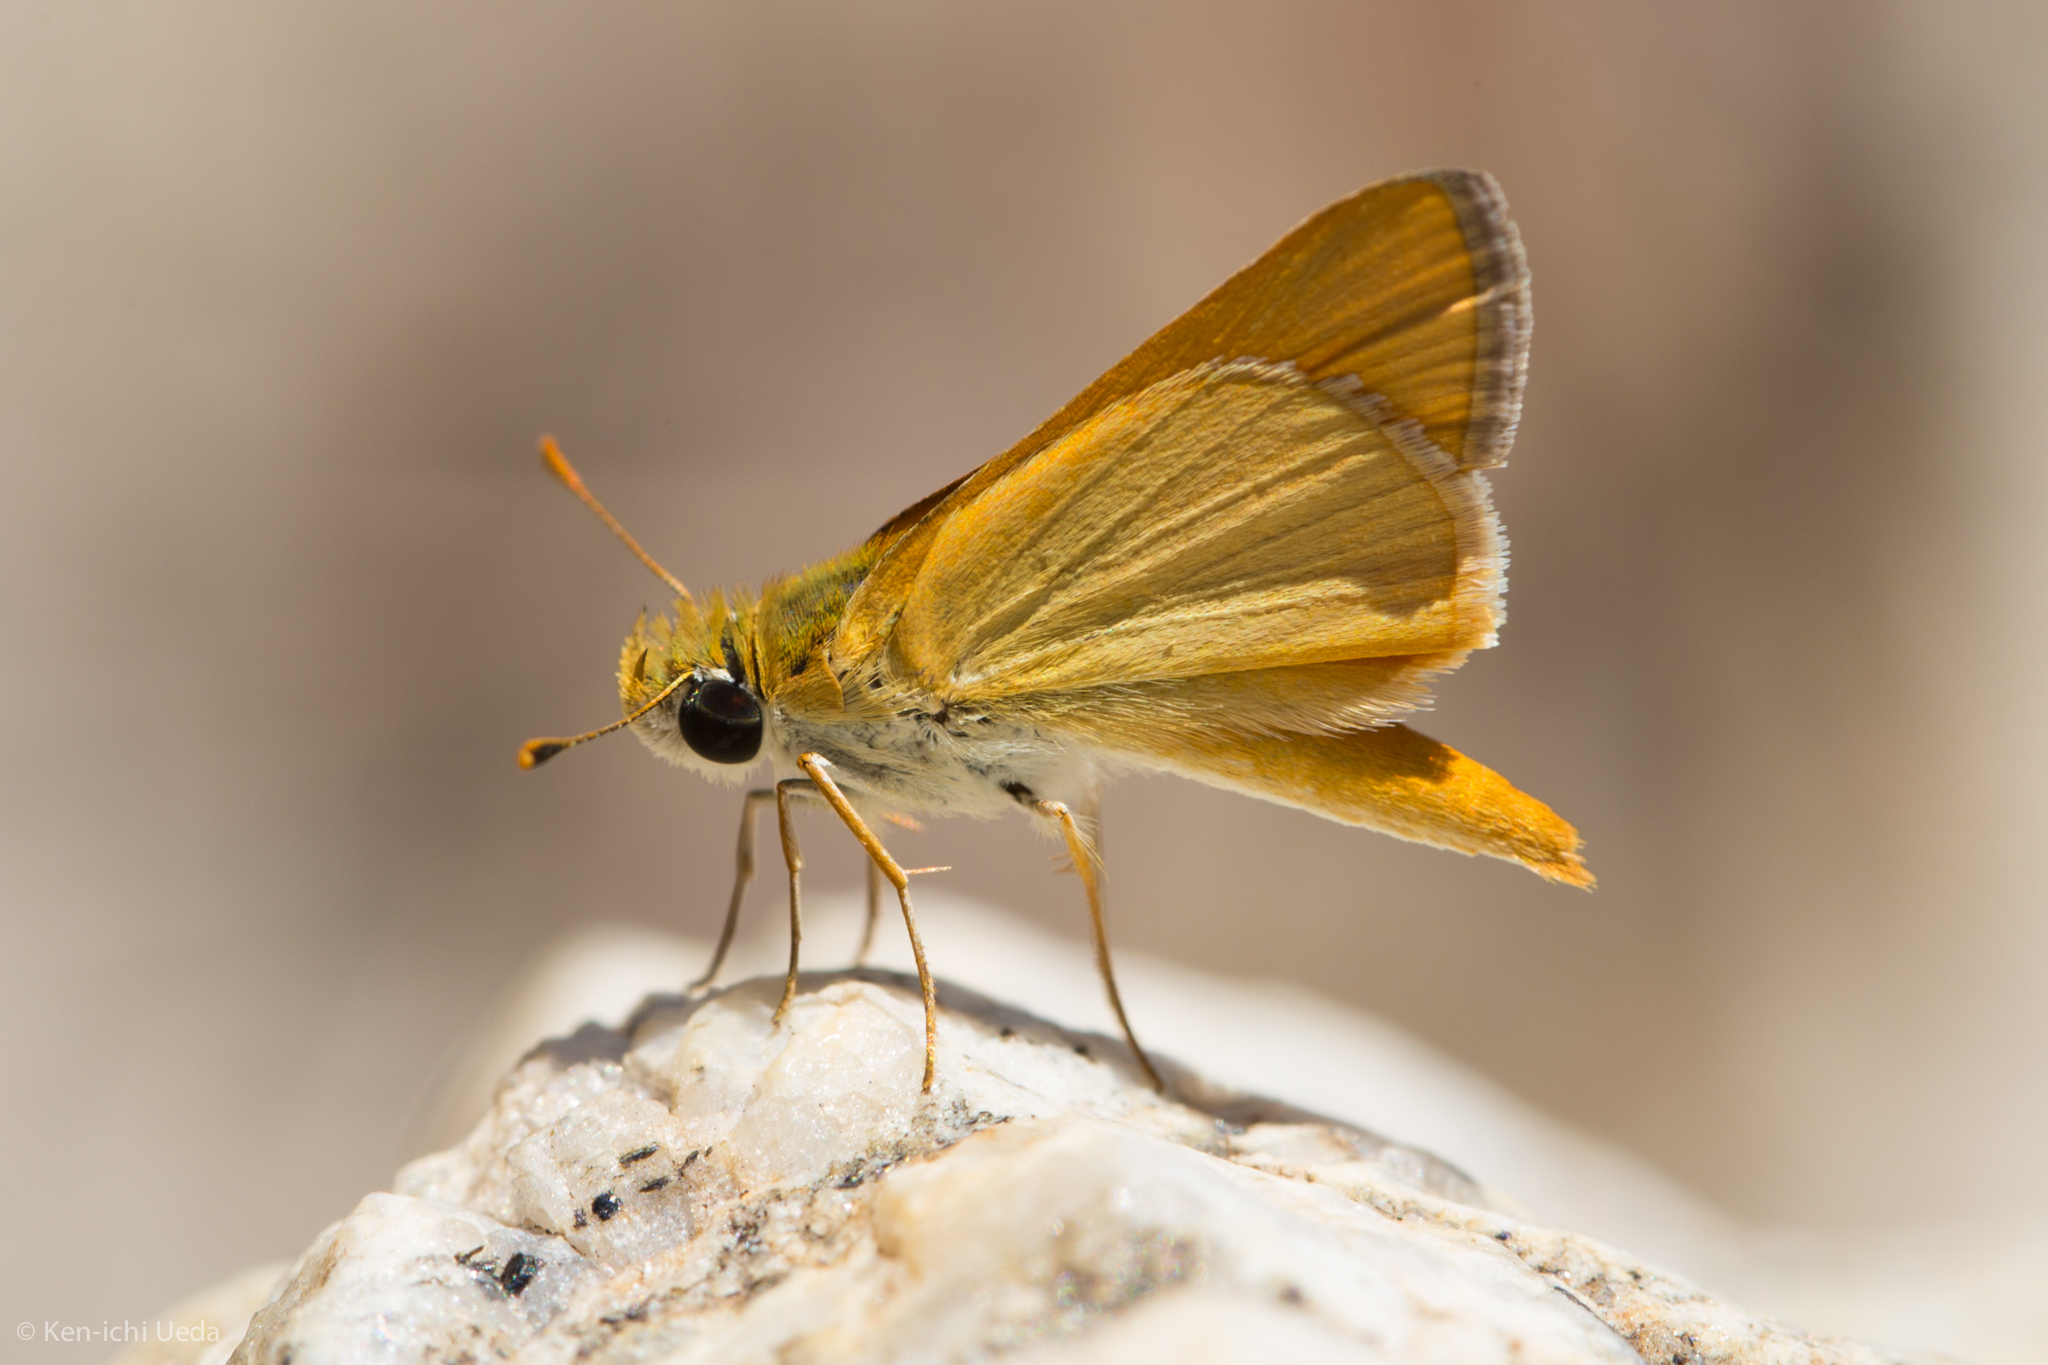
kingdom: Animalia
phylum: Arthropoda
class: Insecta
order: Lepidoptera
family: Hesperiidae
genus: Copaeodes
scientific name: Copaeodes aurantiaca
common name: Orange skipperling
